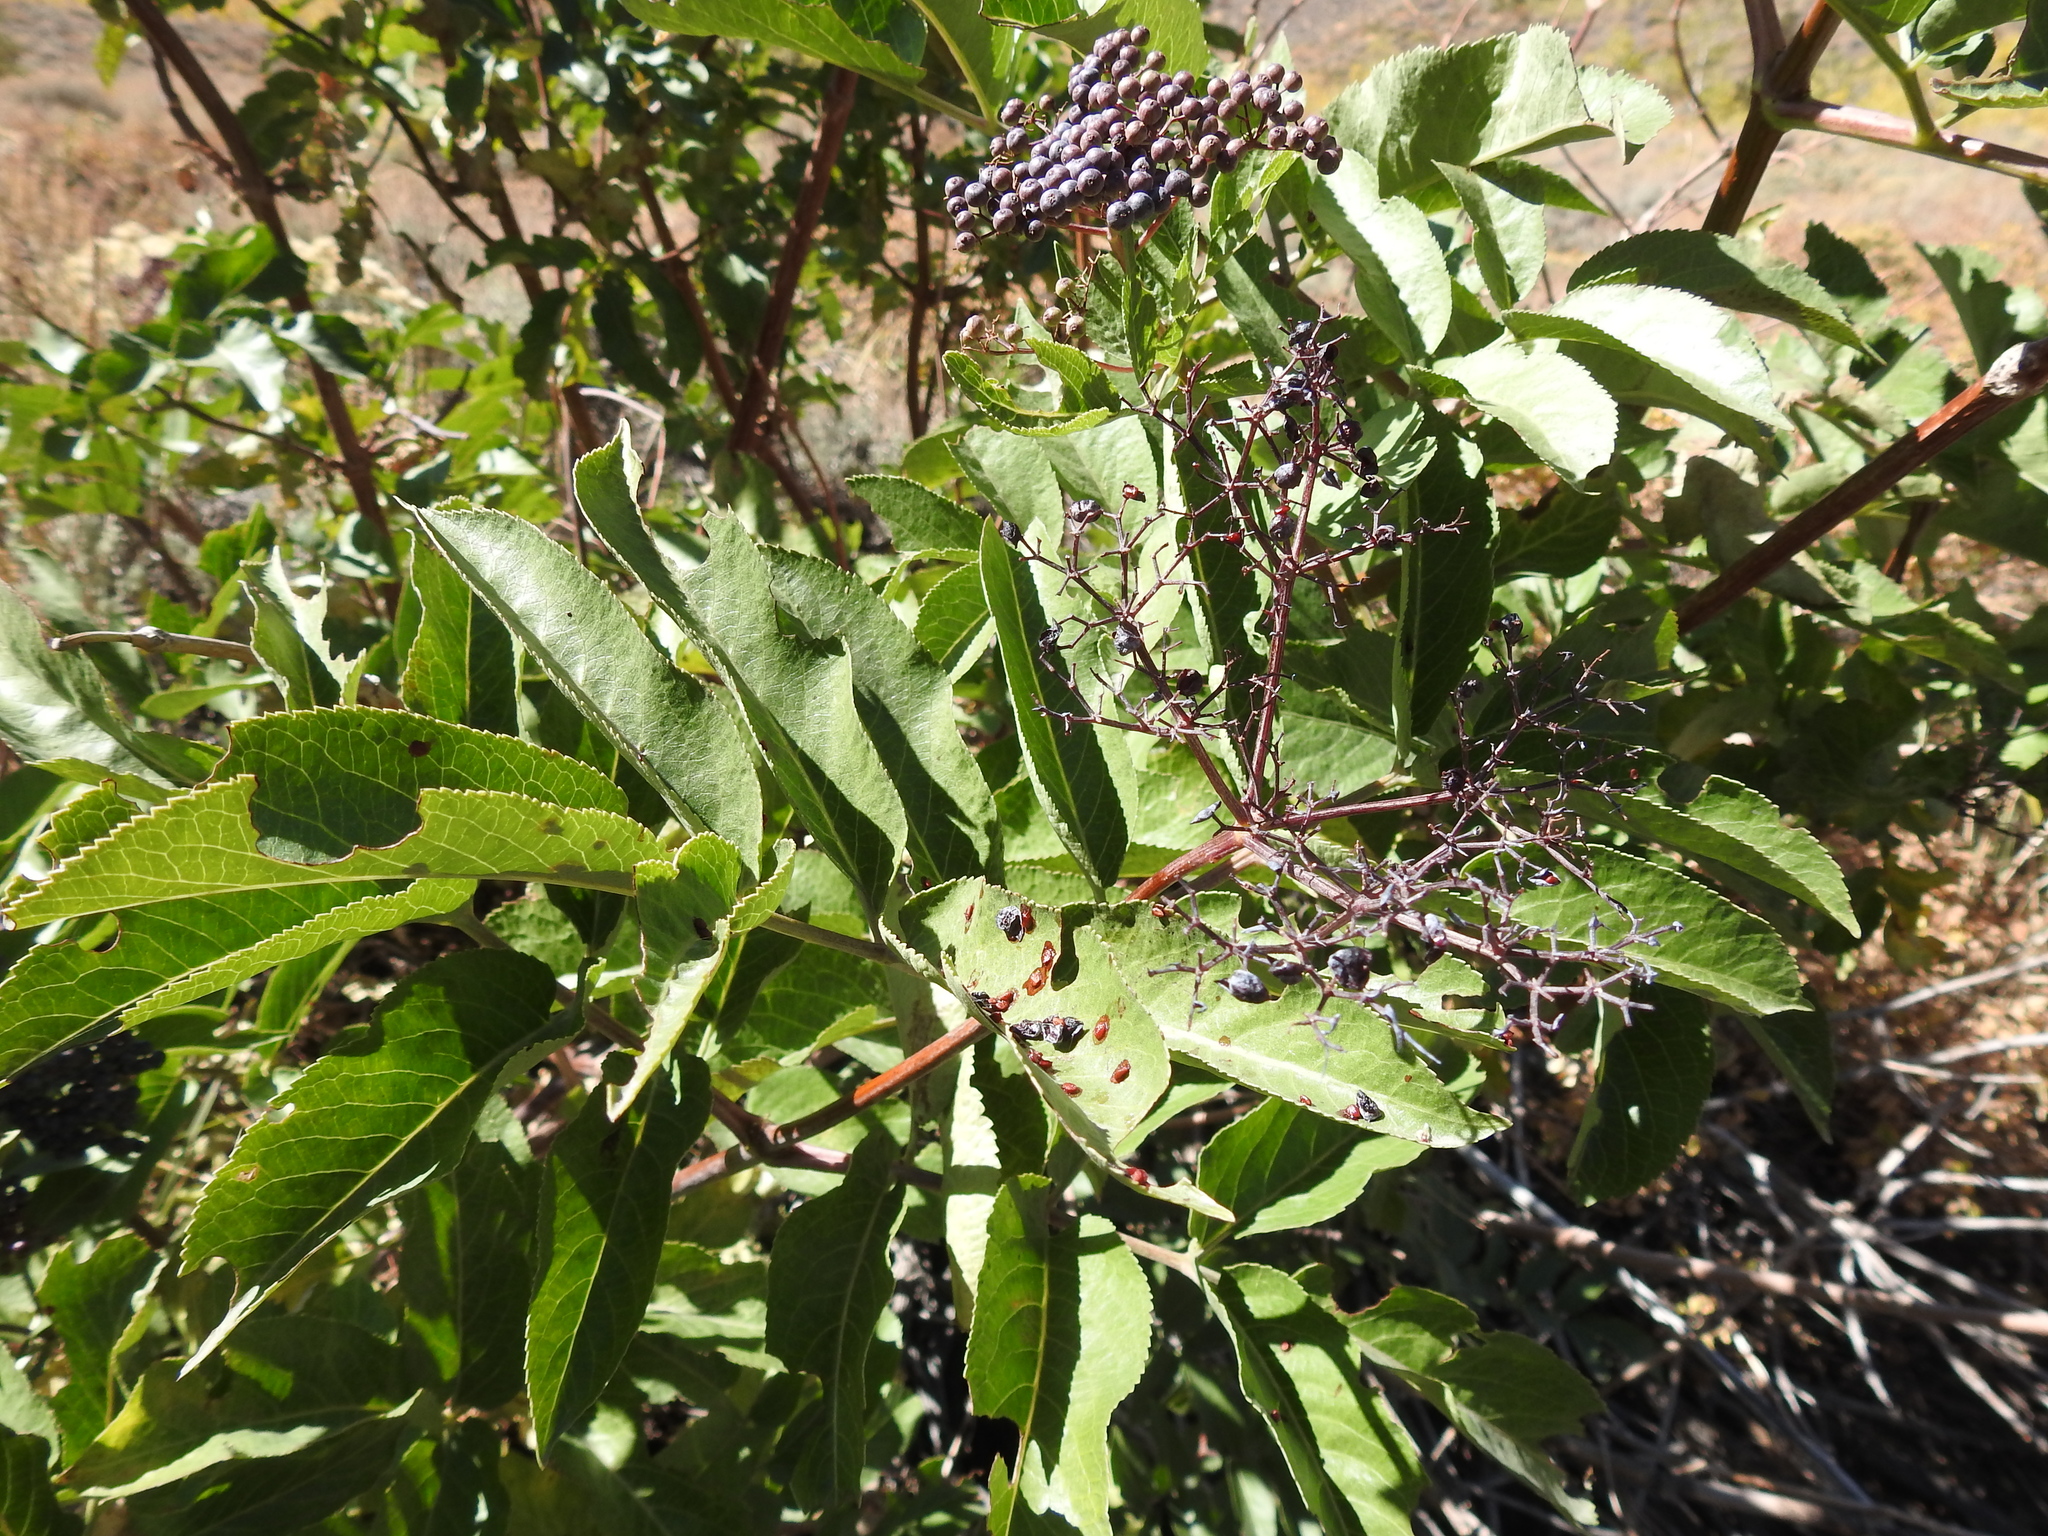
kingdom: Plantae
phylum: Tracheophyta
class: Magnoliopsida
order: Dipsacales
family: Viburnaceae
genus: Sambucus
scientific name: Sambucus cerulea
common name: Blue elder
